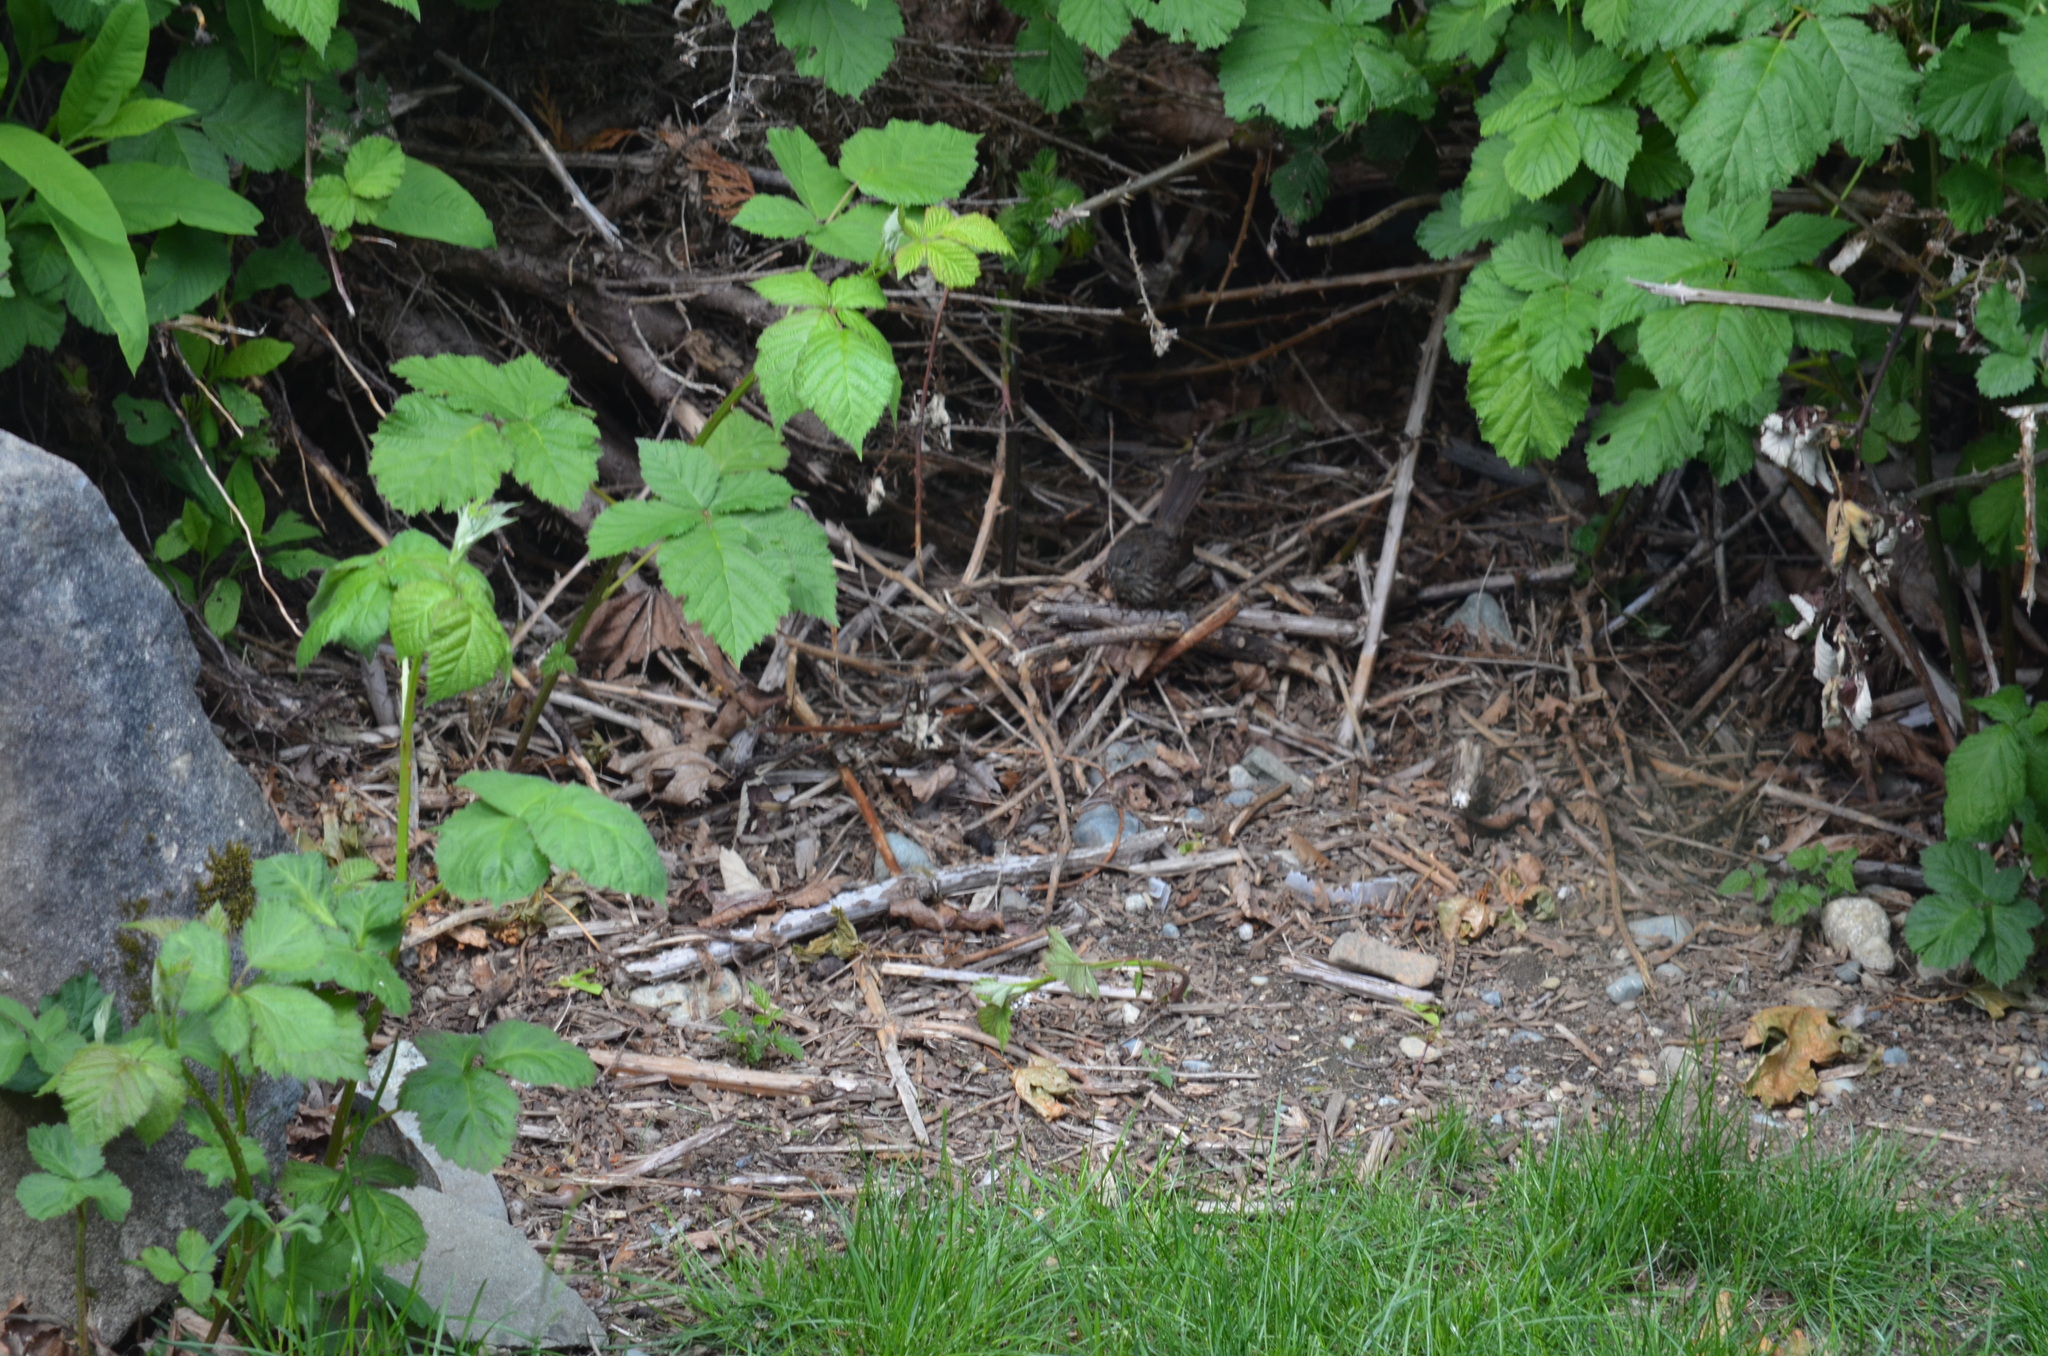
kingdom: Animalia
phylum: Chordata
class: Aves
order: Passeriformes
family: Passerellidae
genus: Melospiza
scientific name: Melospiza melodia
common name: Song sparrow
